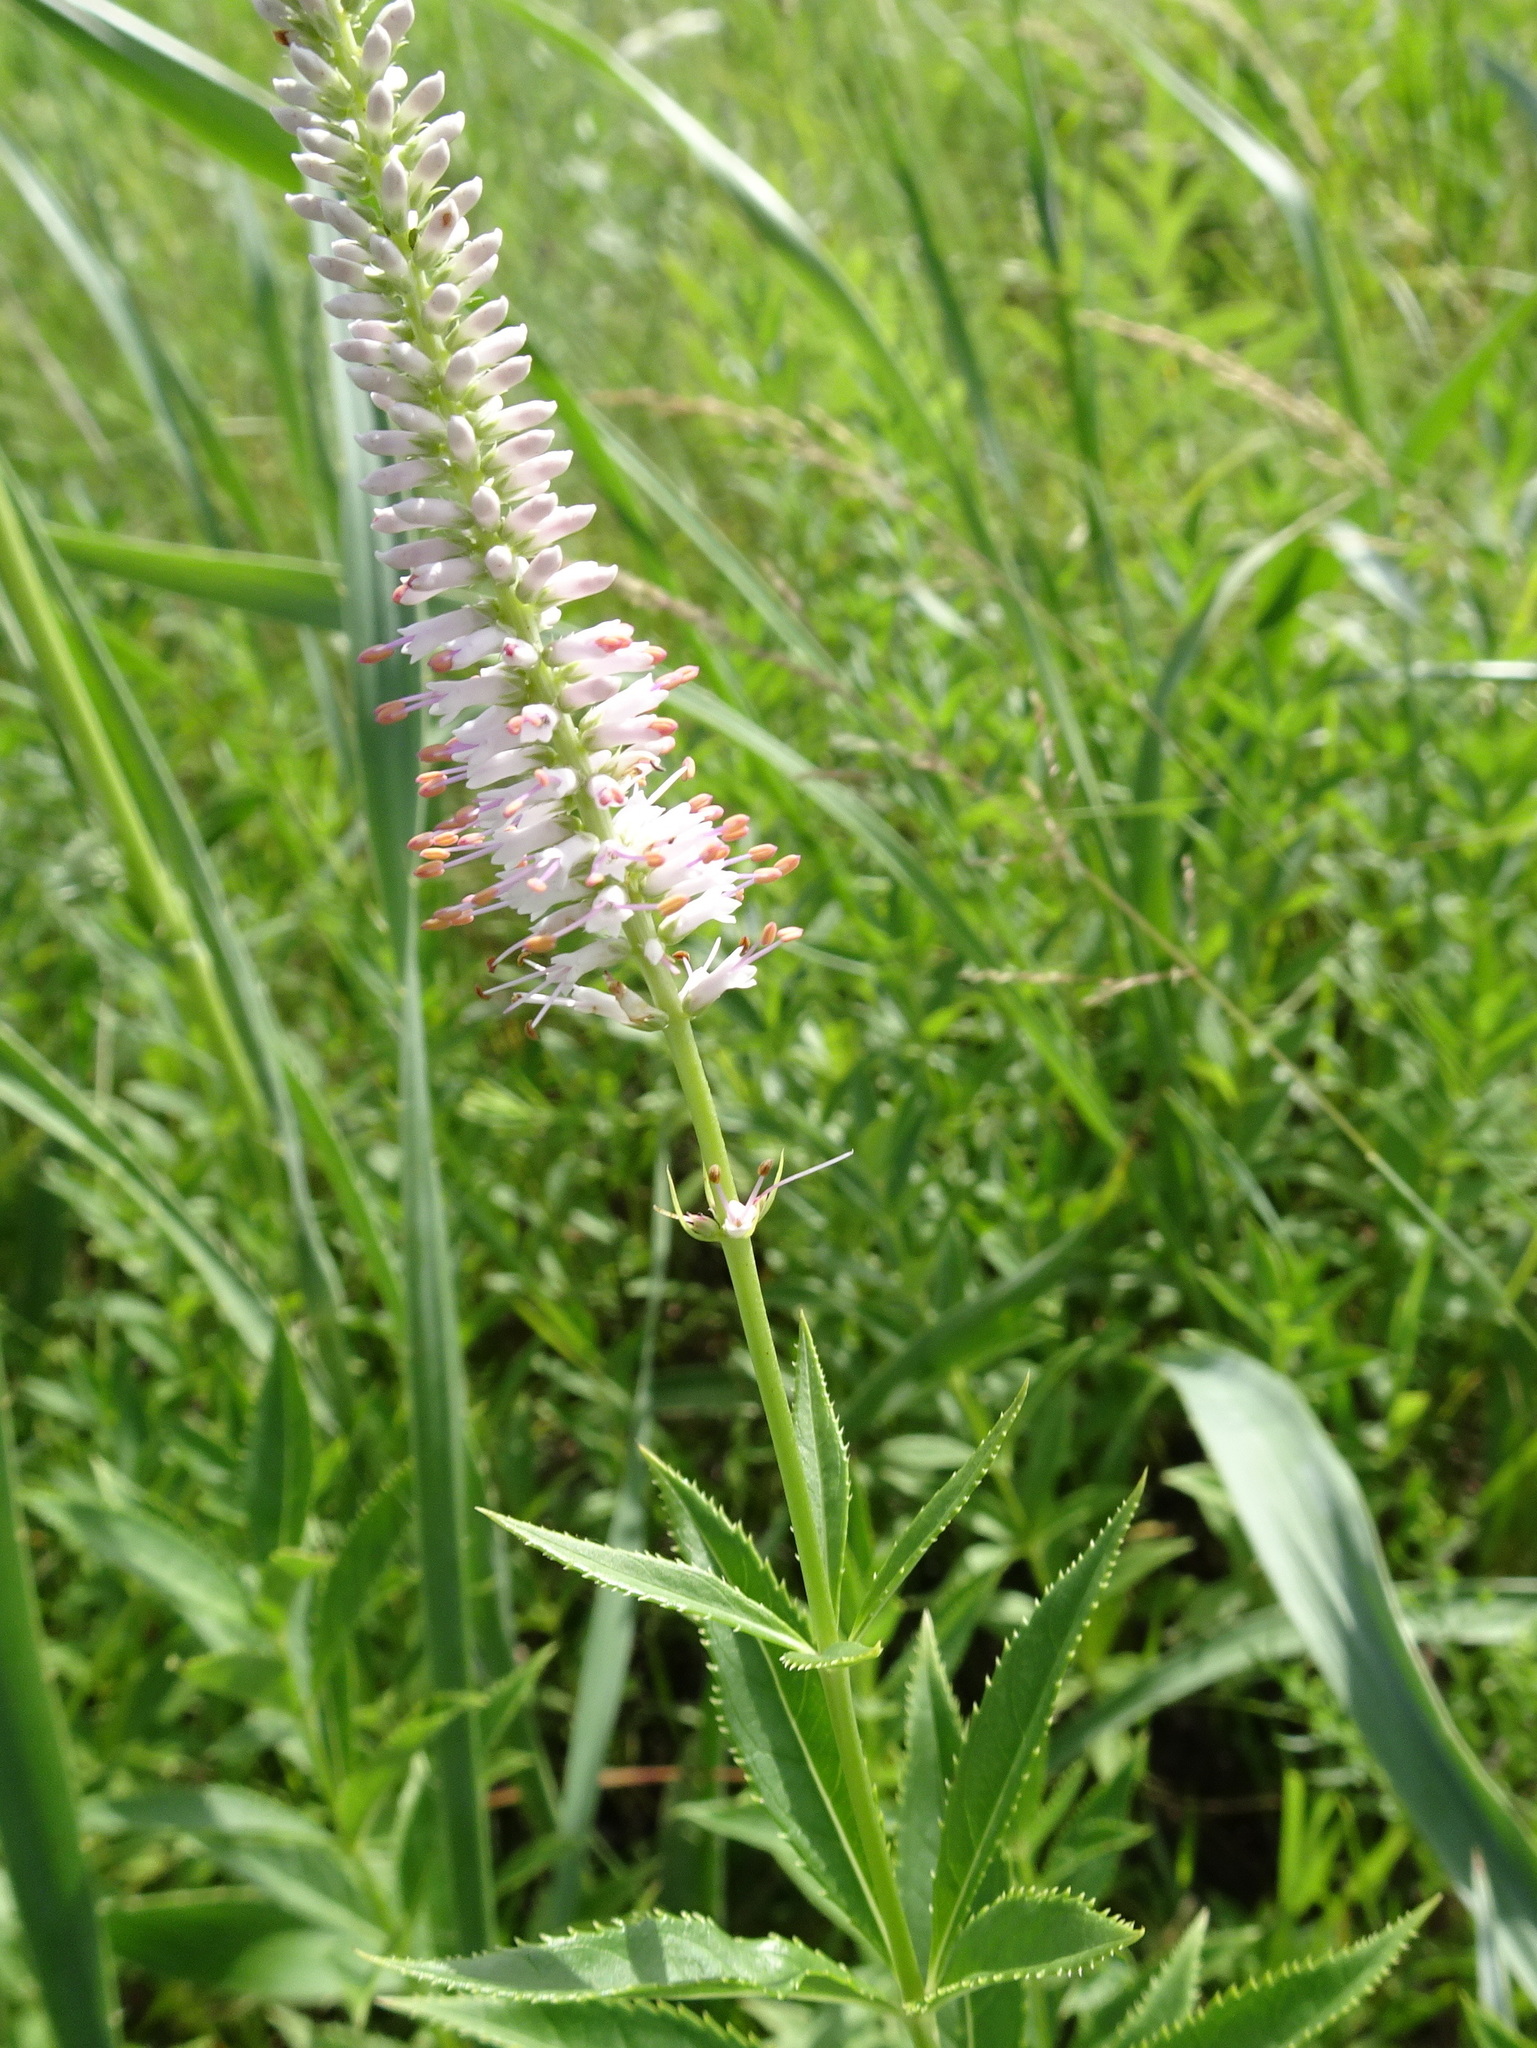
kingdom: Plantae
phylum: Tracheophyta
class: Magnoliopsida
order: Lamiales
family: Plantaginaceae
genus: Veronicastrum
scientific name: Veronicastrum virginicum
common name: Blackroot
